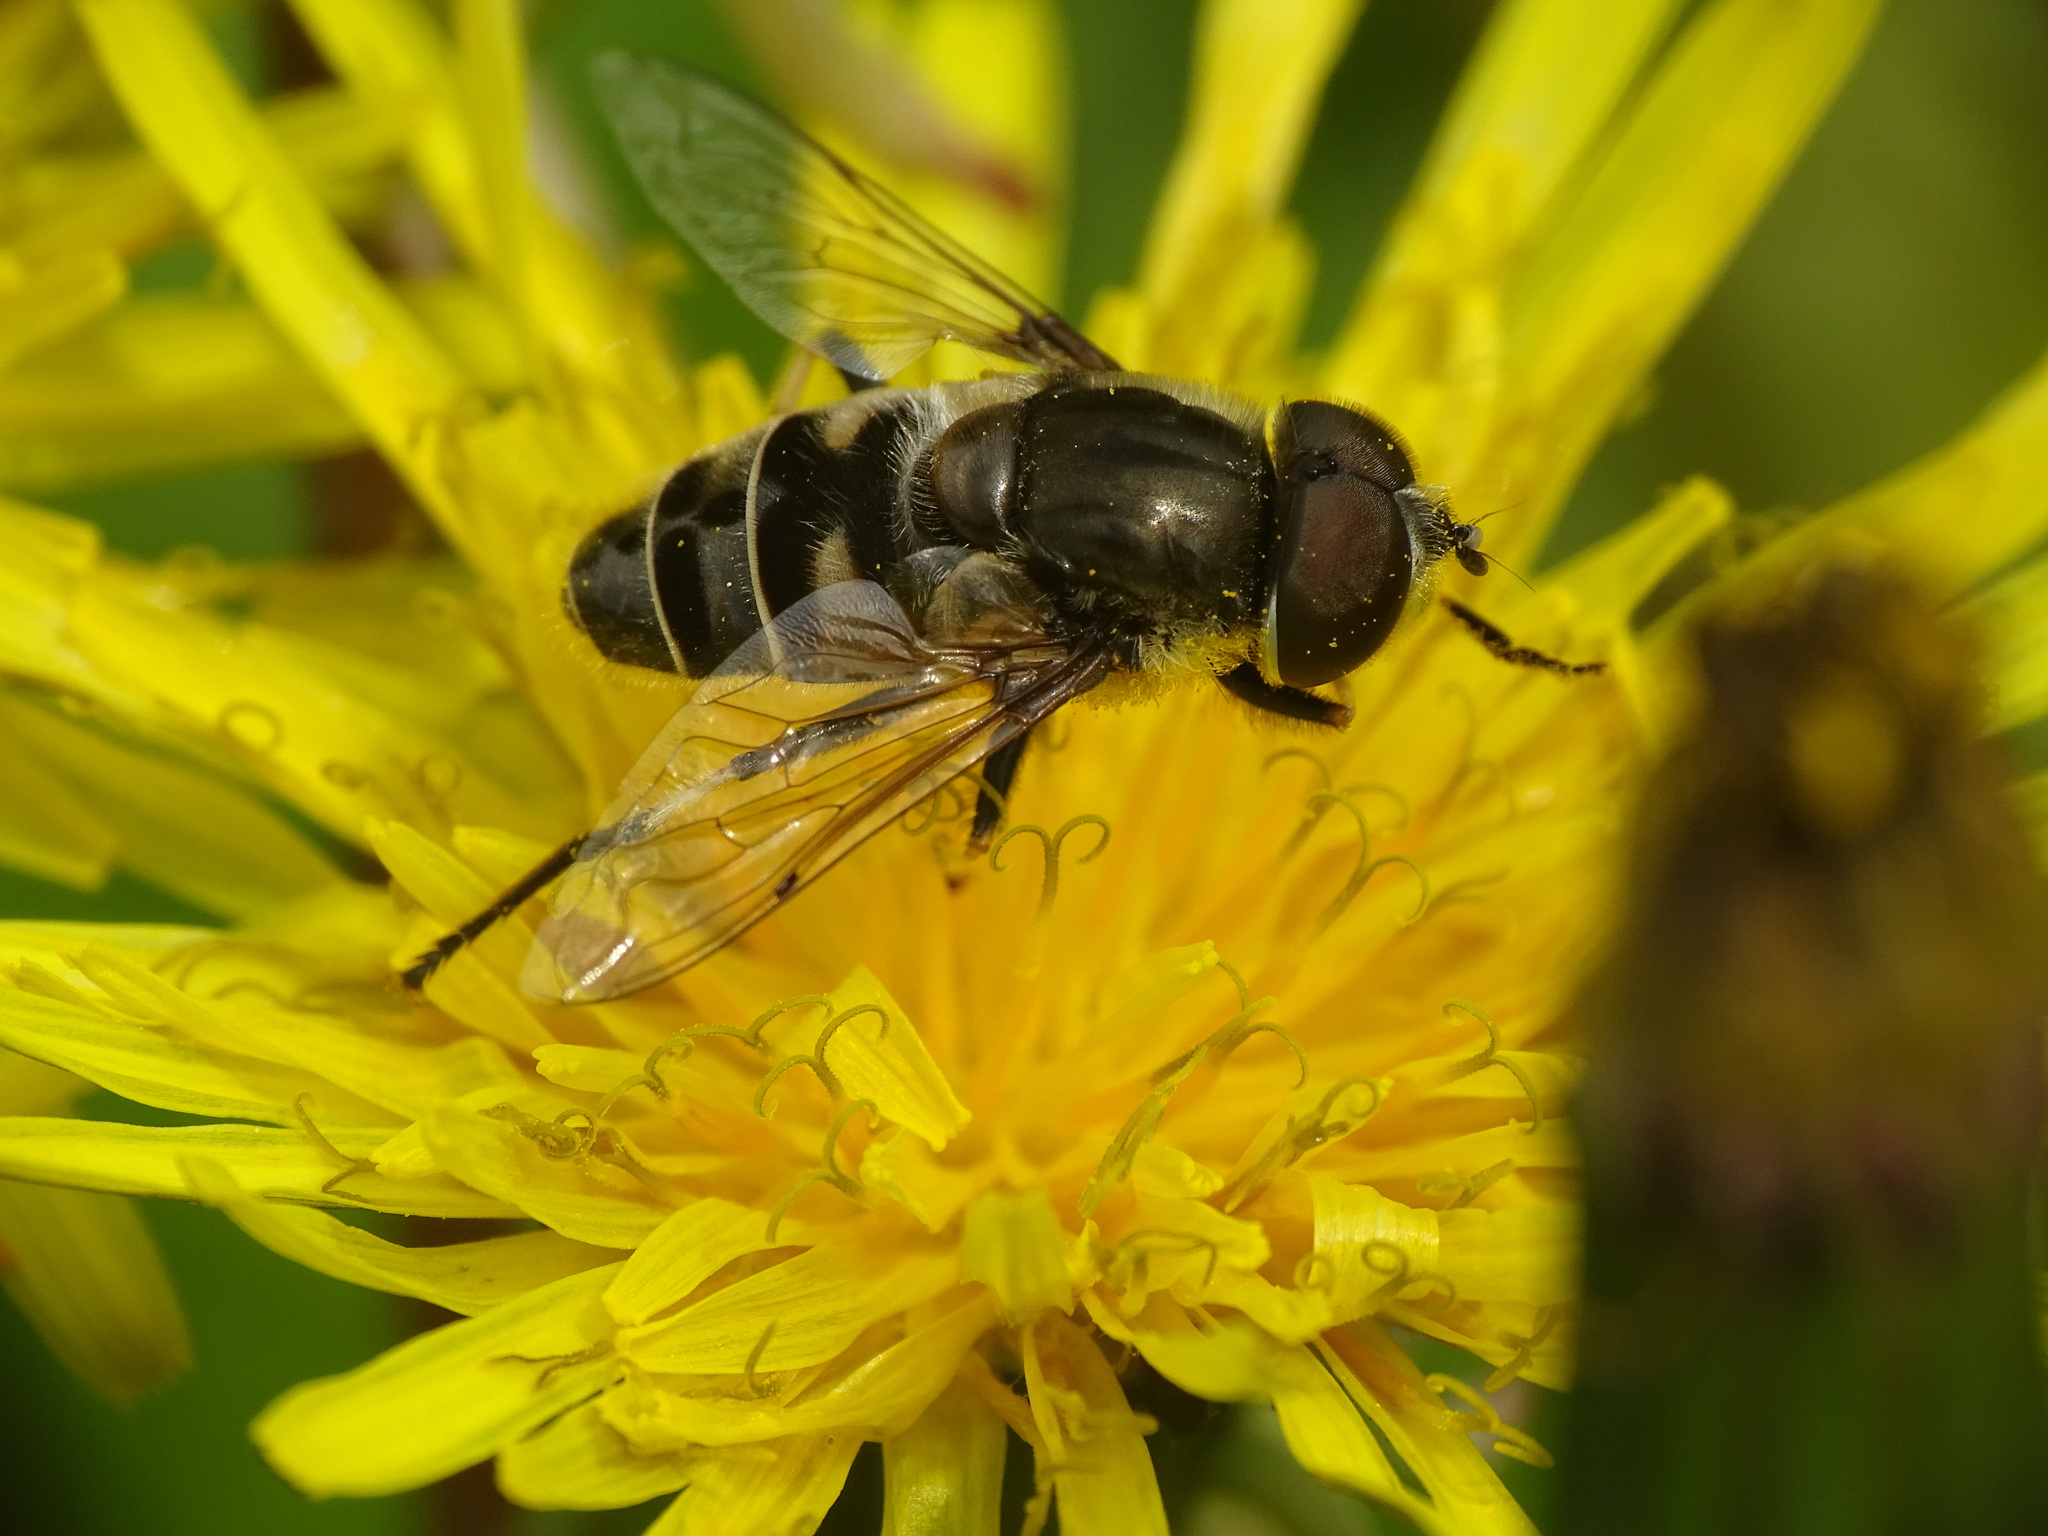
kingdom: Animalia
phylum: Arthropoda
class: Insecta
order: Diptera
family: Syrphidae
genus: Eristalis
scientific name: Eristalis dimidiata
